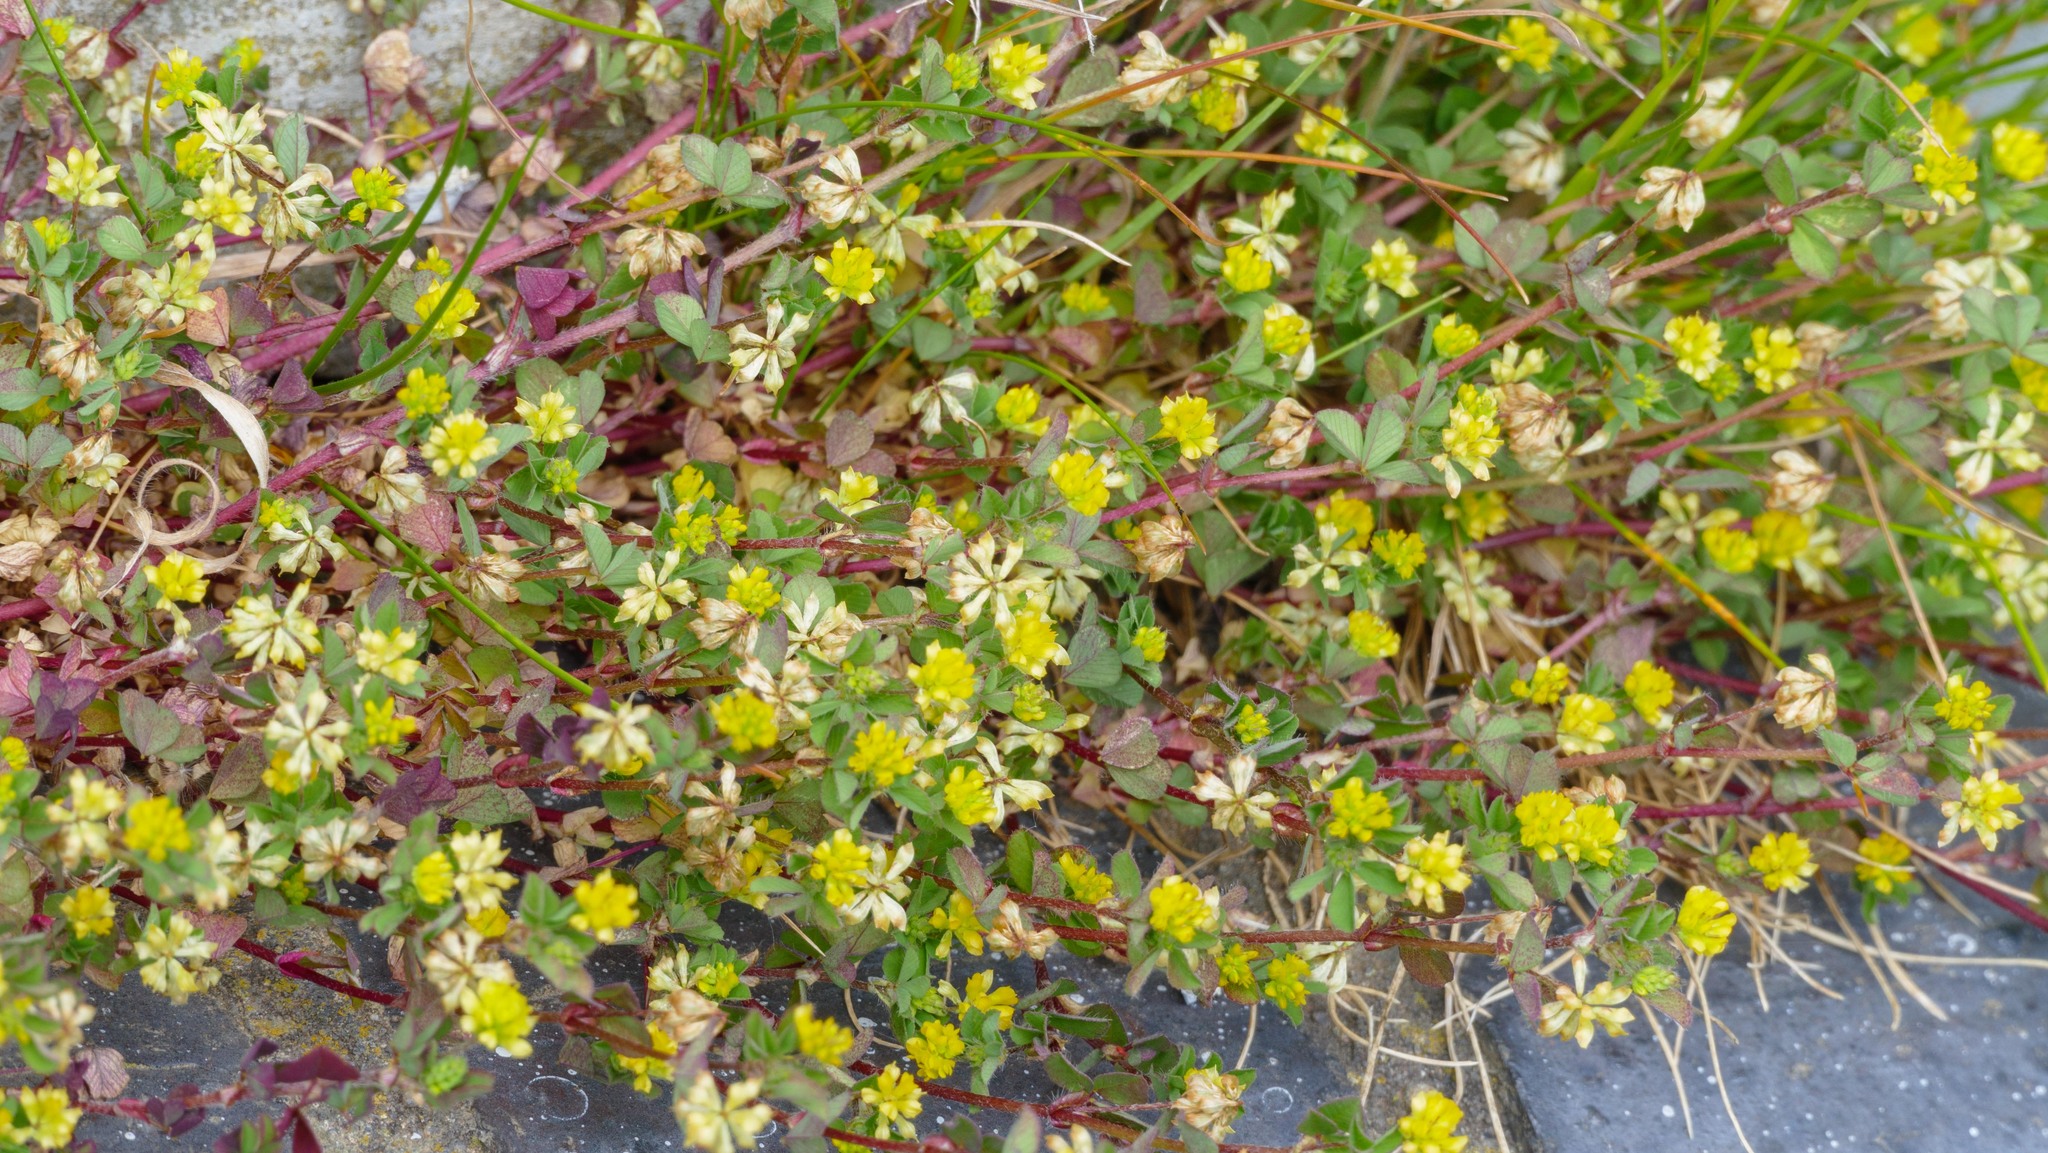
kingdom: Plantae
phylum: Tracheophyta
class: Magnoliopsida
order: Fabales
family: Fabaceae
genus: Trifolium
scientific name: Trifolium dubium
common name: Suckling clover
